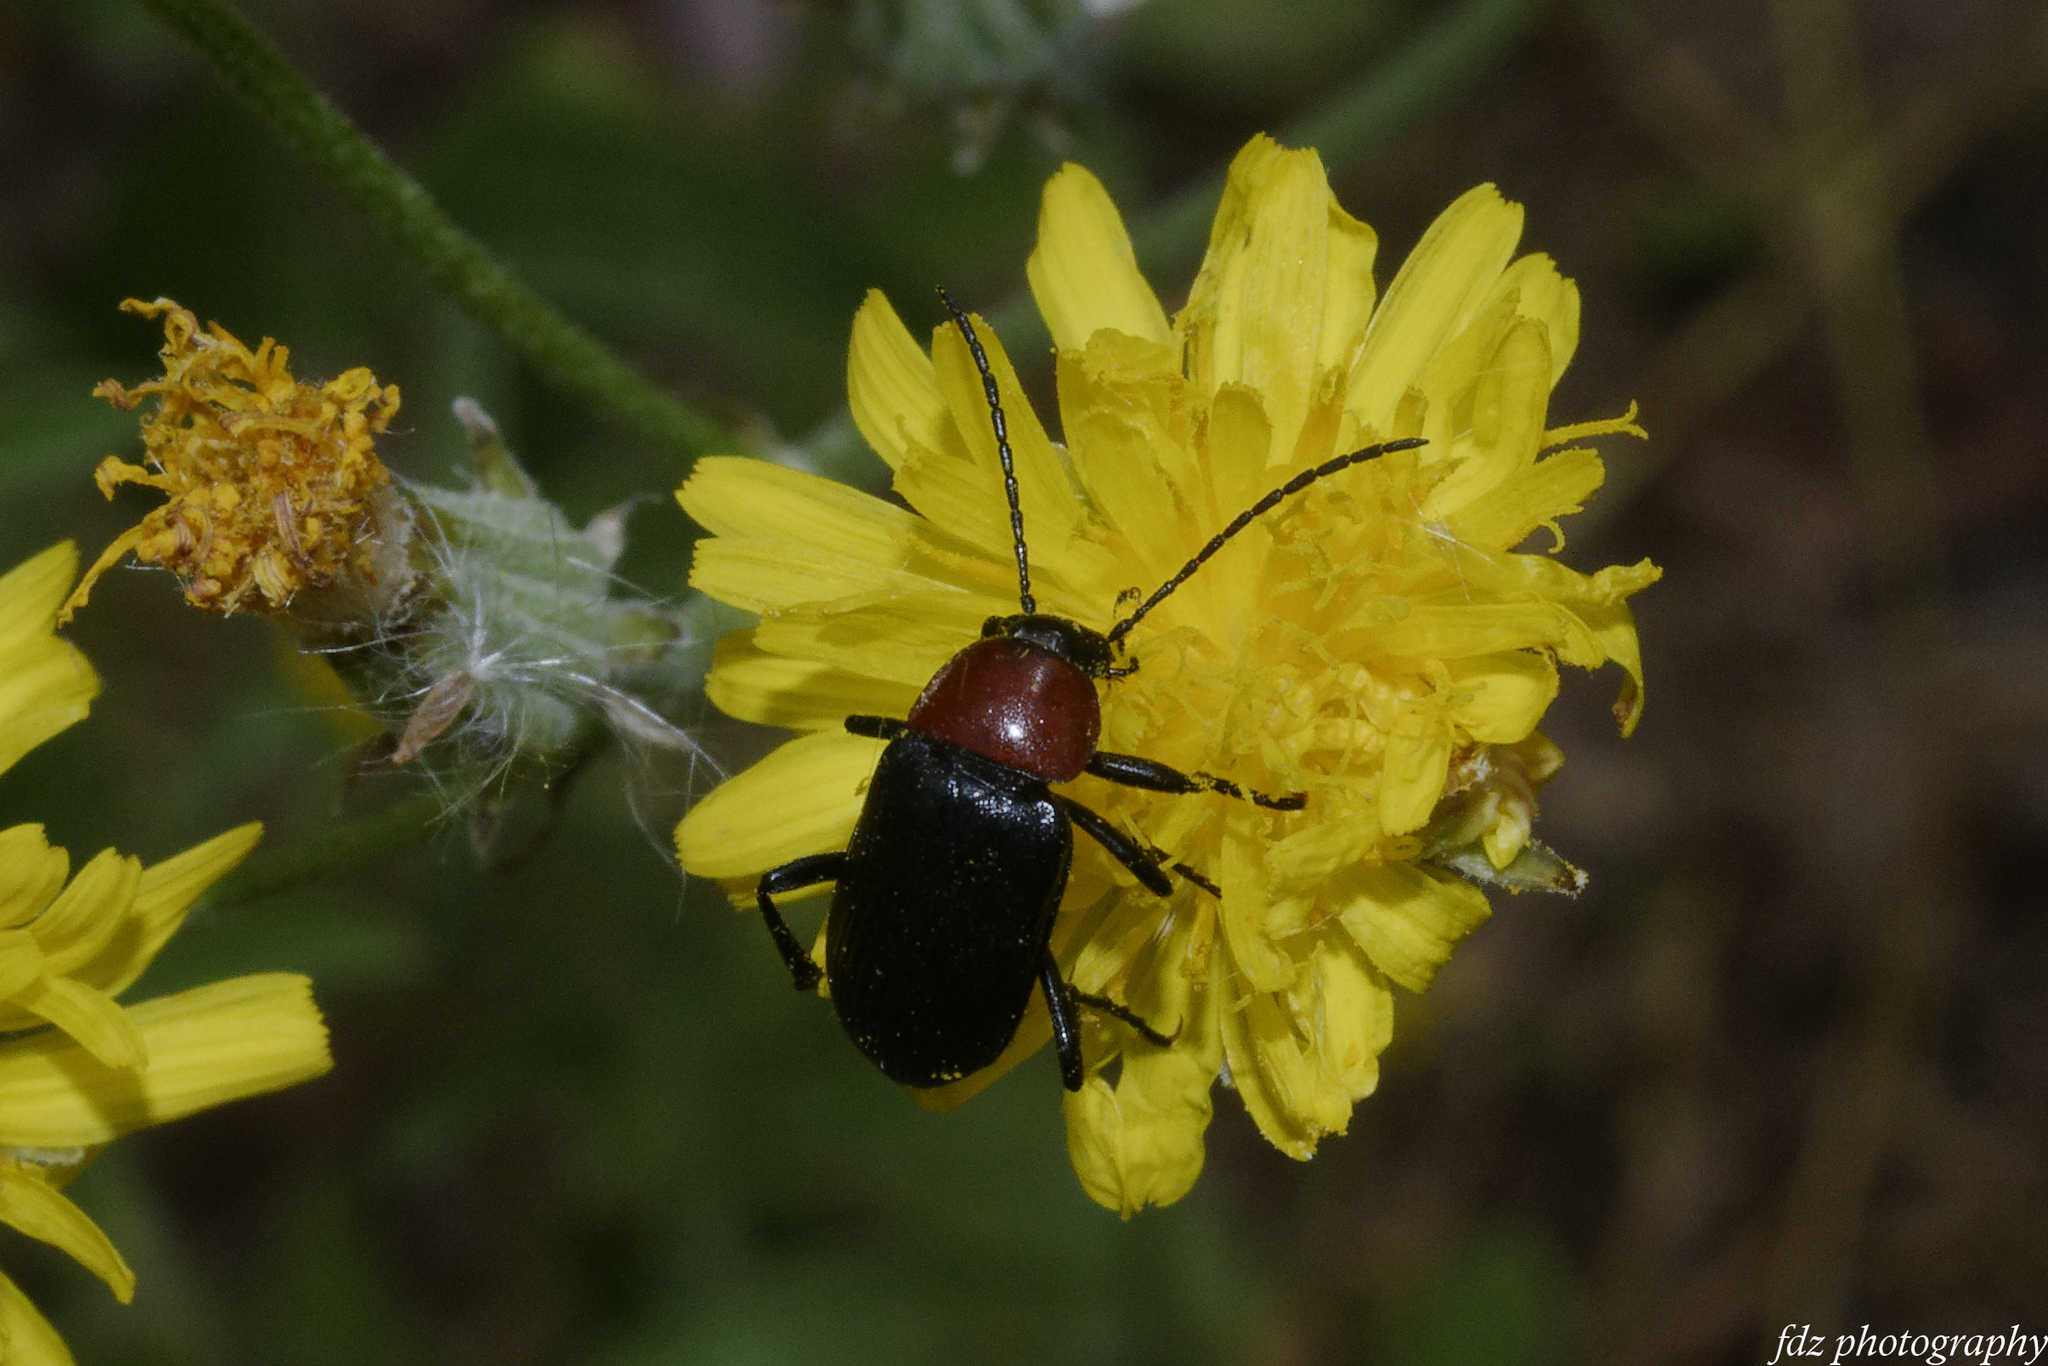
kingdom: Animalia
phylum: Arthropoda
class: Insecta
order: Coleoptera
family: Tenebrionidae
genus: Heliotaurus
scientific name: Heliotaurus ruficollis
